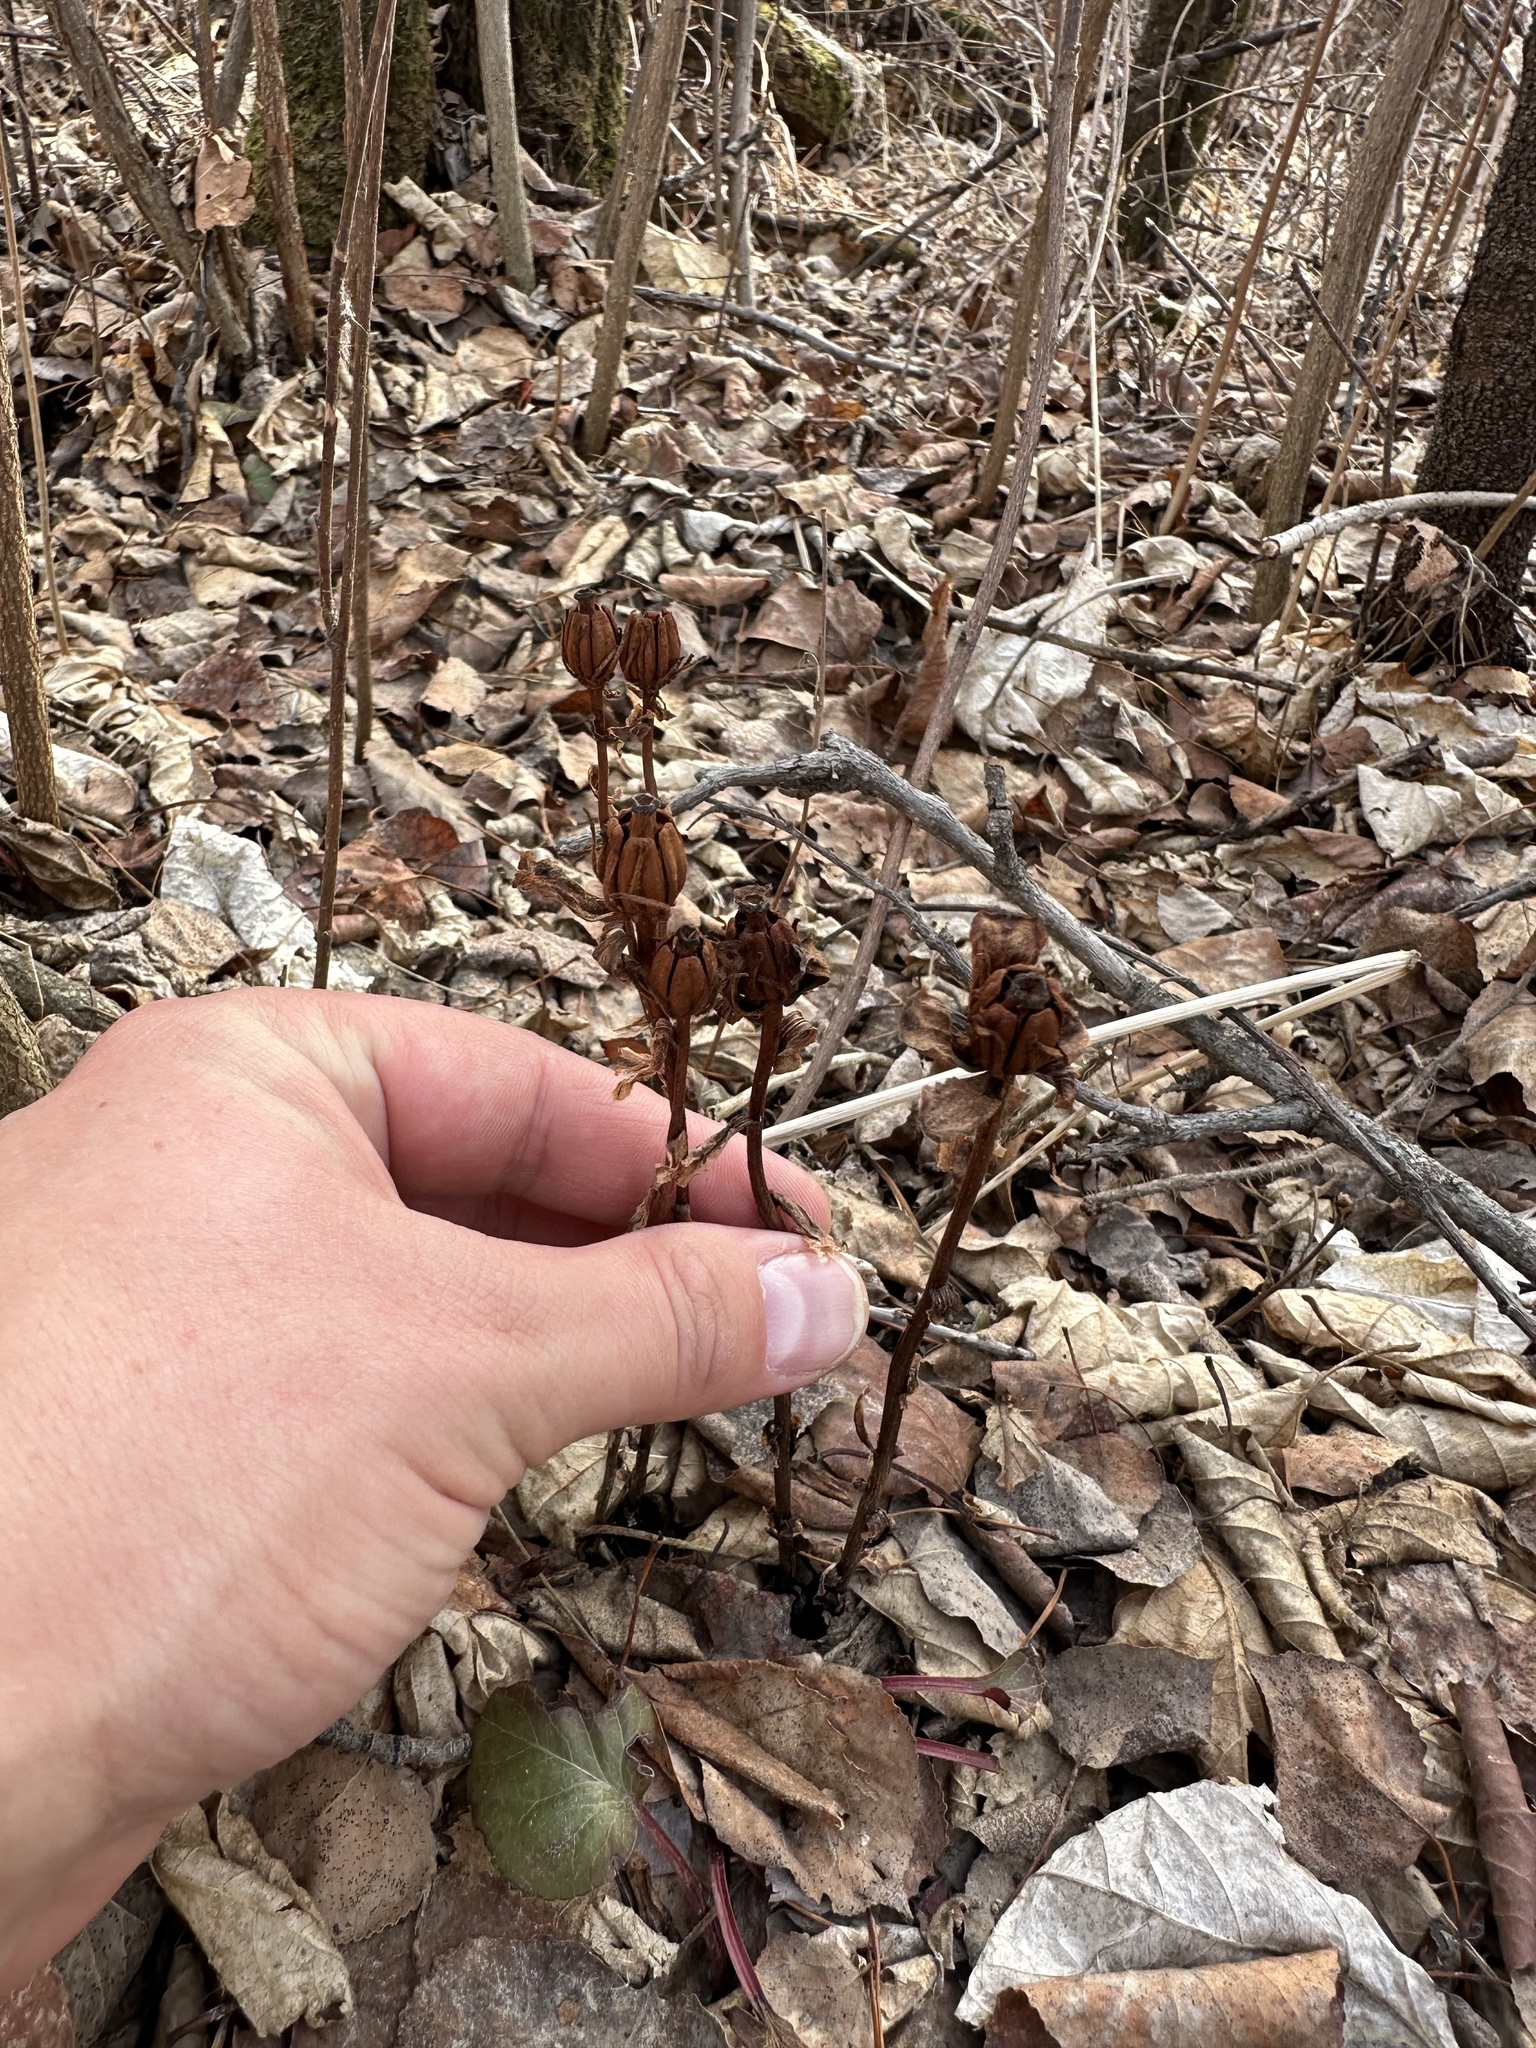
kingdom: Plantae
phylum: Tracheophyta
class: Magnoliopsida
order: Ericales
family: Ericaceae
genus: Monotropa
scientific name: Monotropa uniflora
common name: Convulsion root
